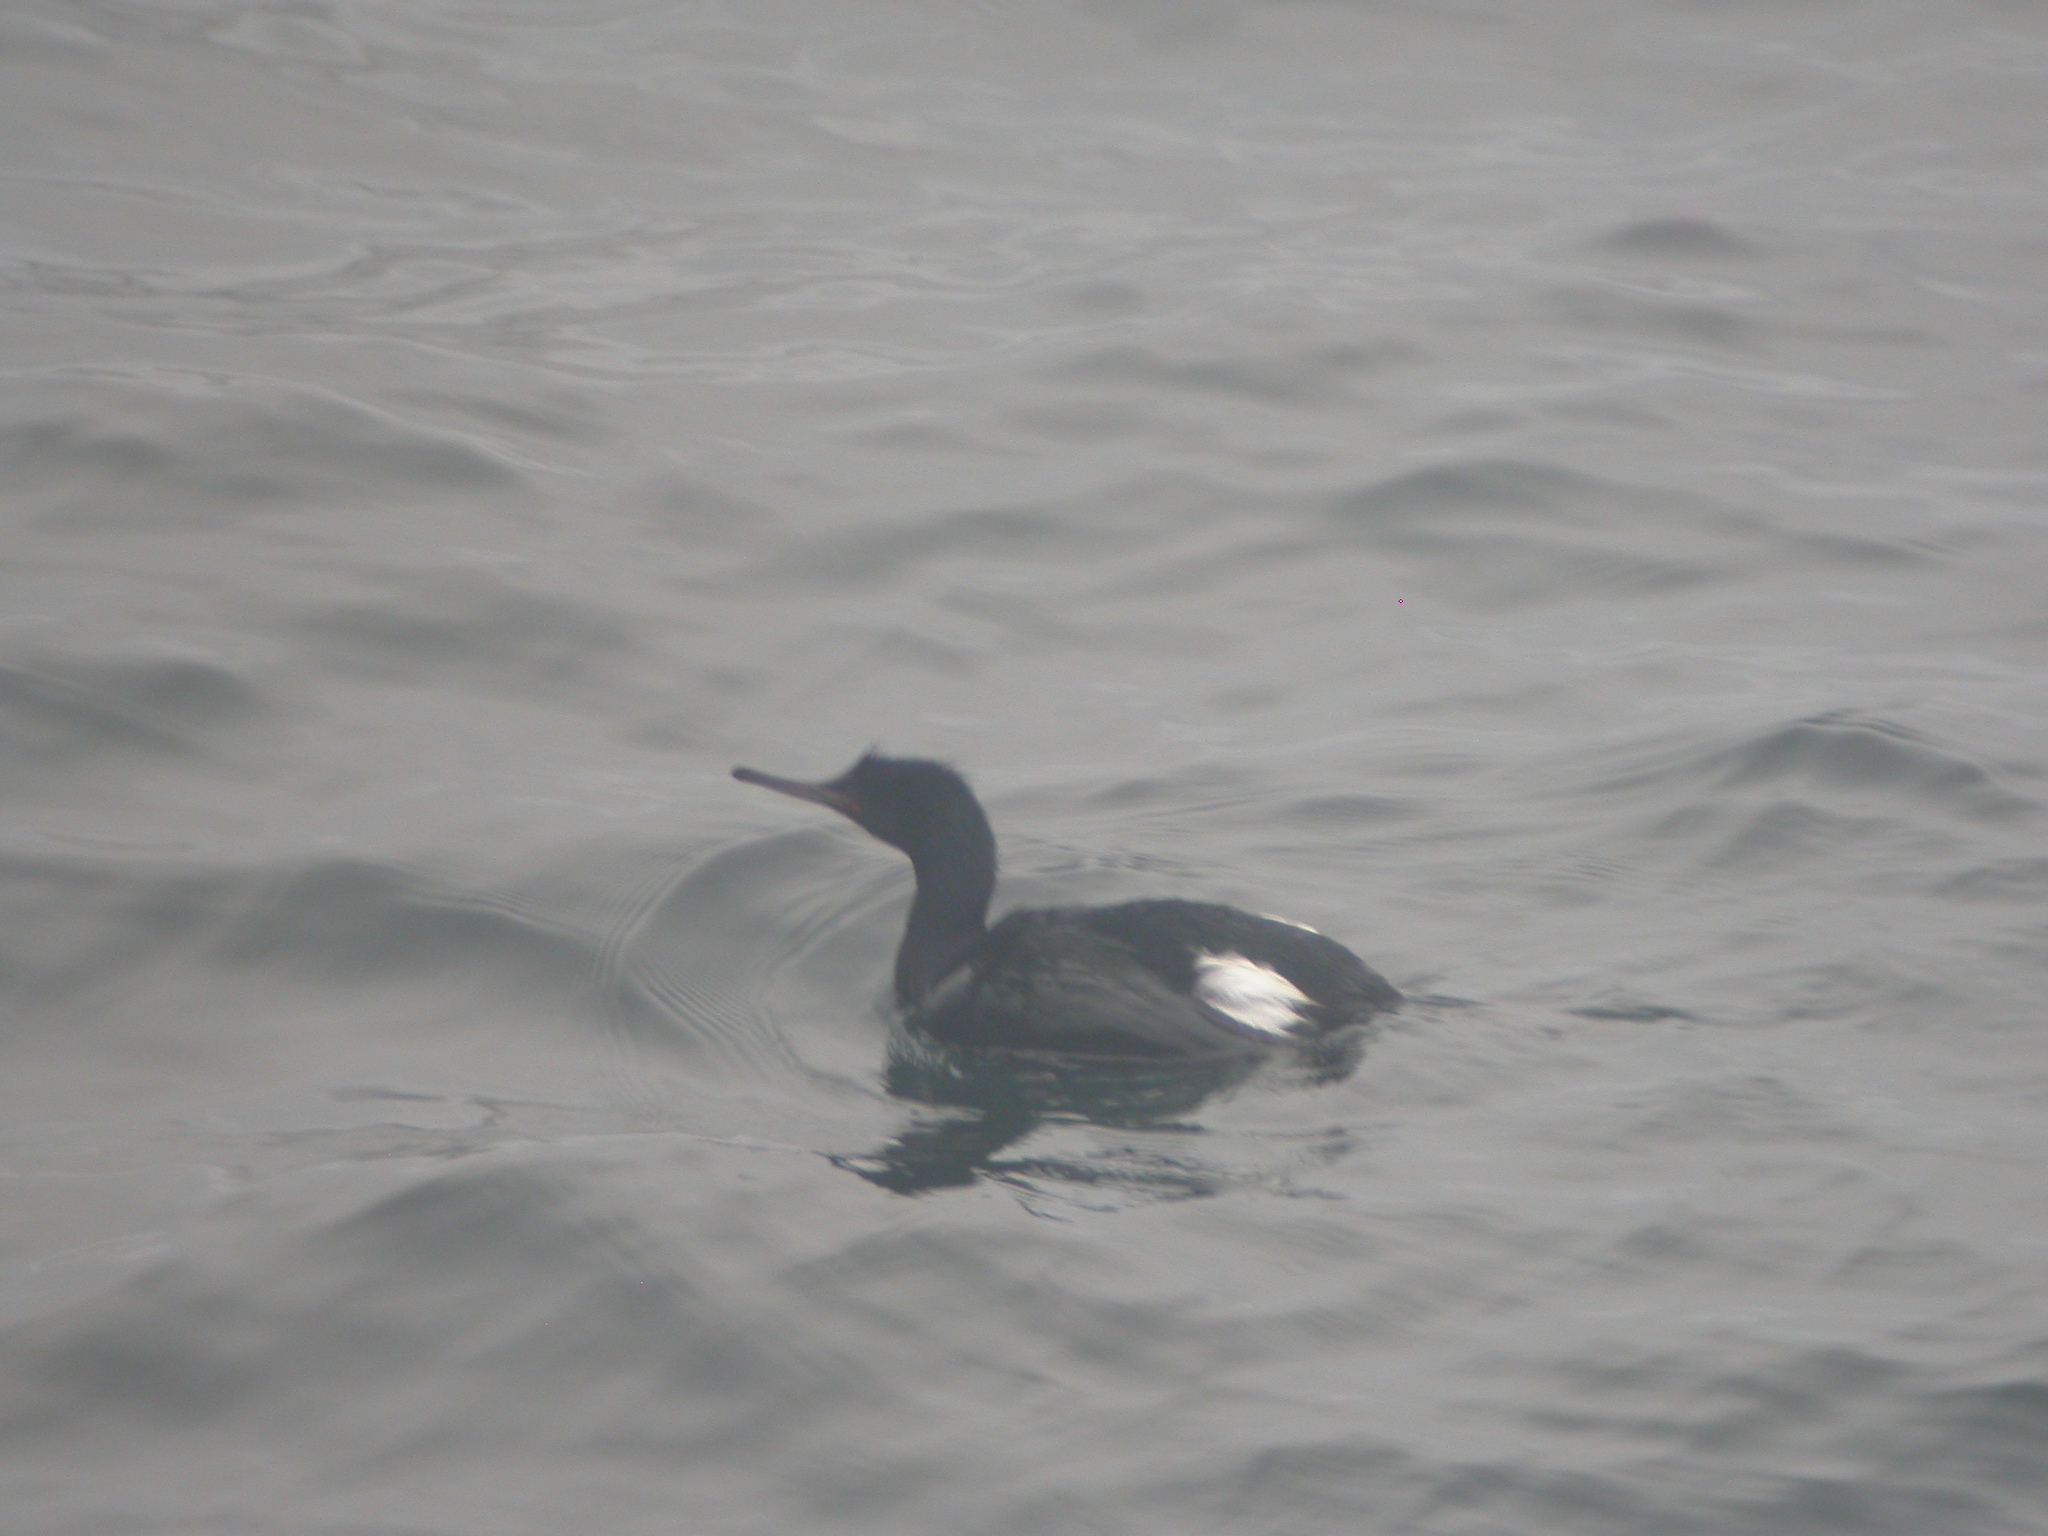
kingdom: Animalia
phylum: Chordata
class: Aves
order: Suliformes
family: Phalacrocoracidae
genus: Phalacrocorax
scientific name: Phalacrocorax pelagicus
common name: Pelagic cormorant
